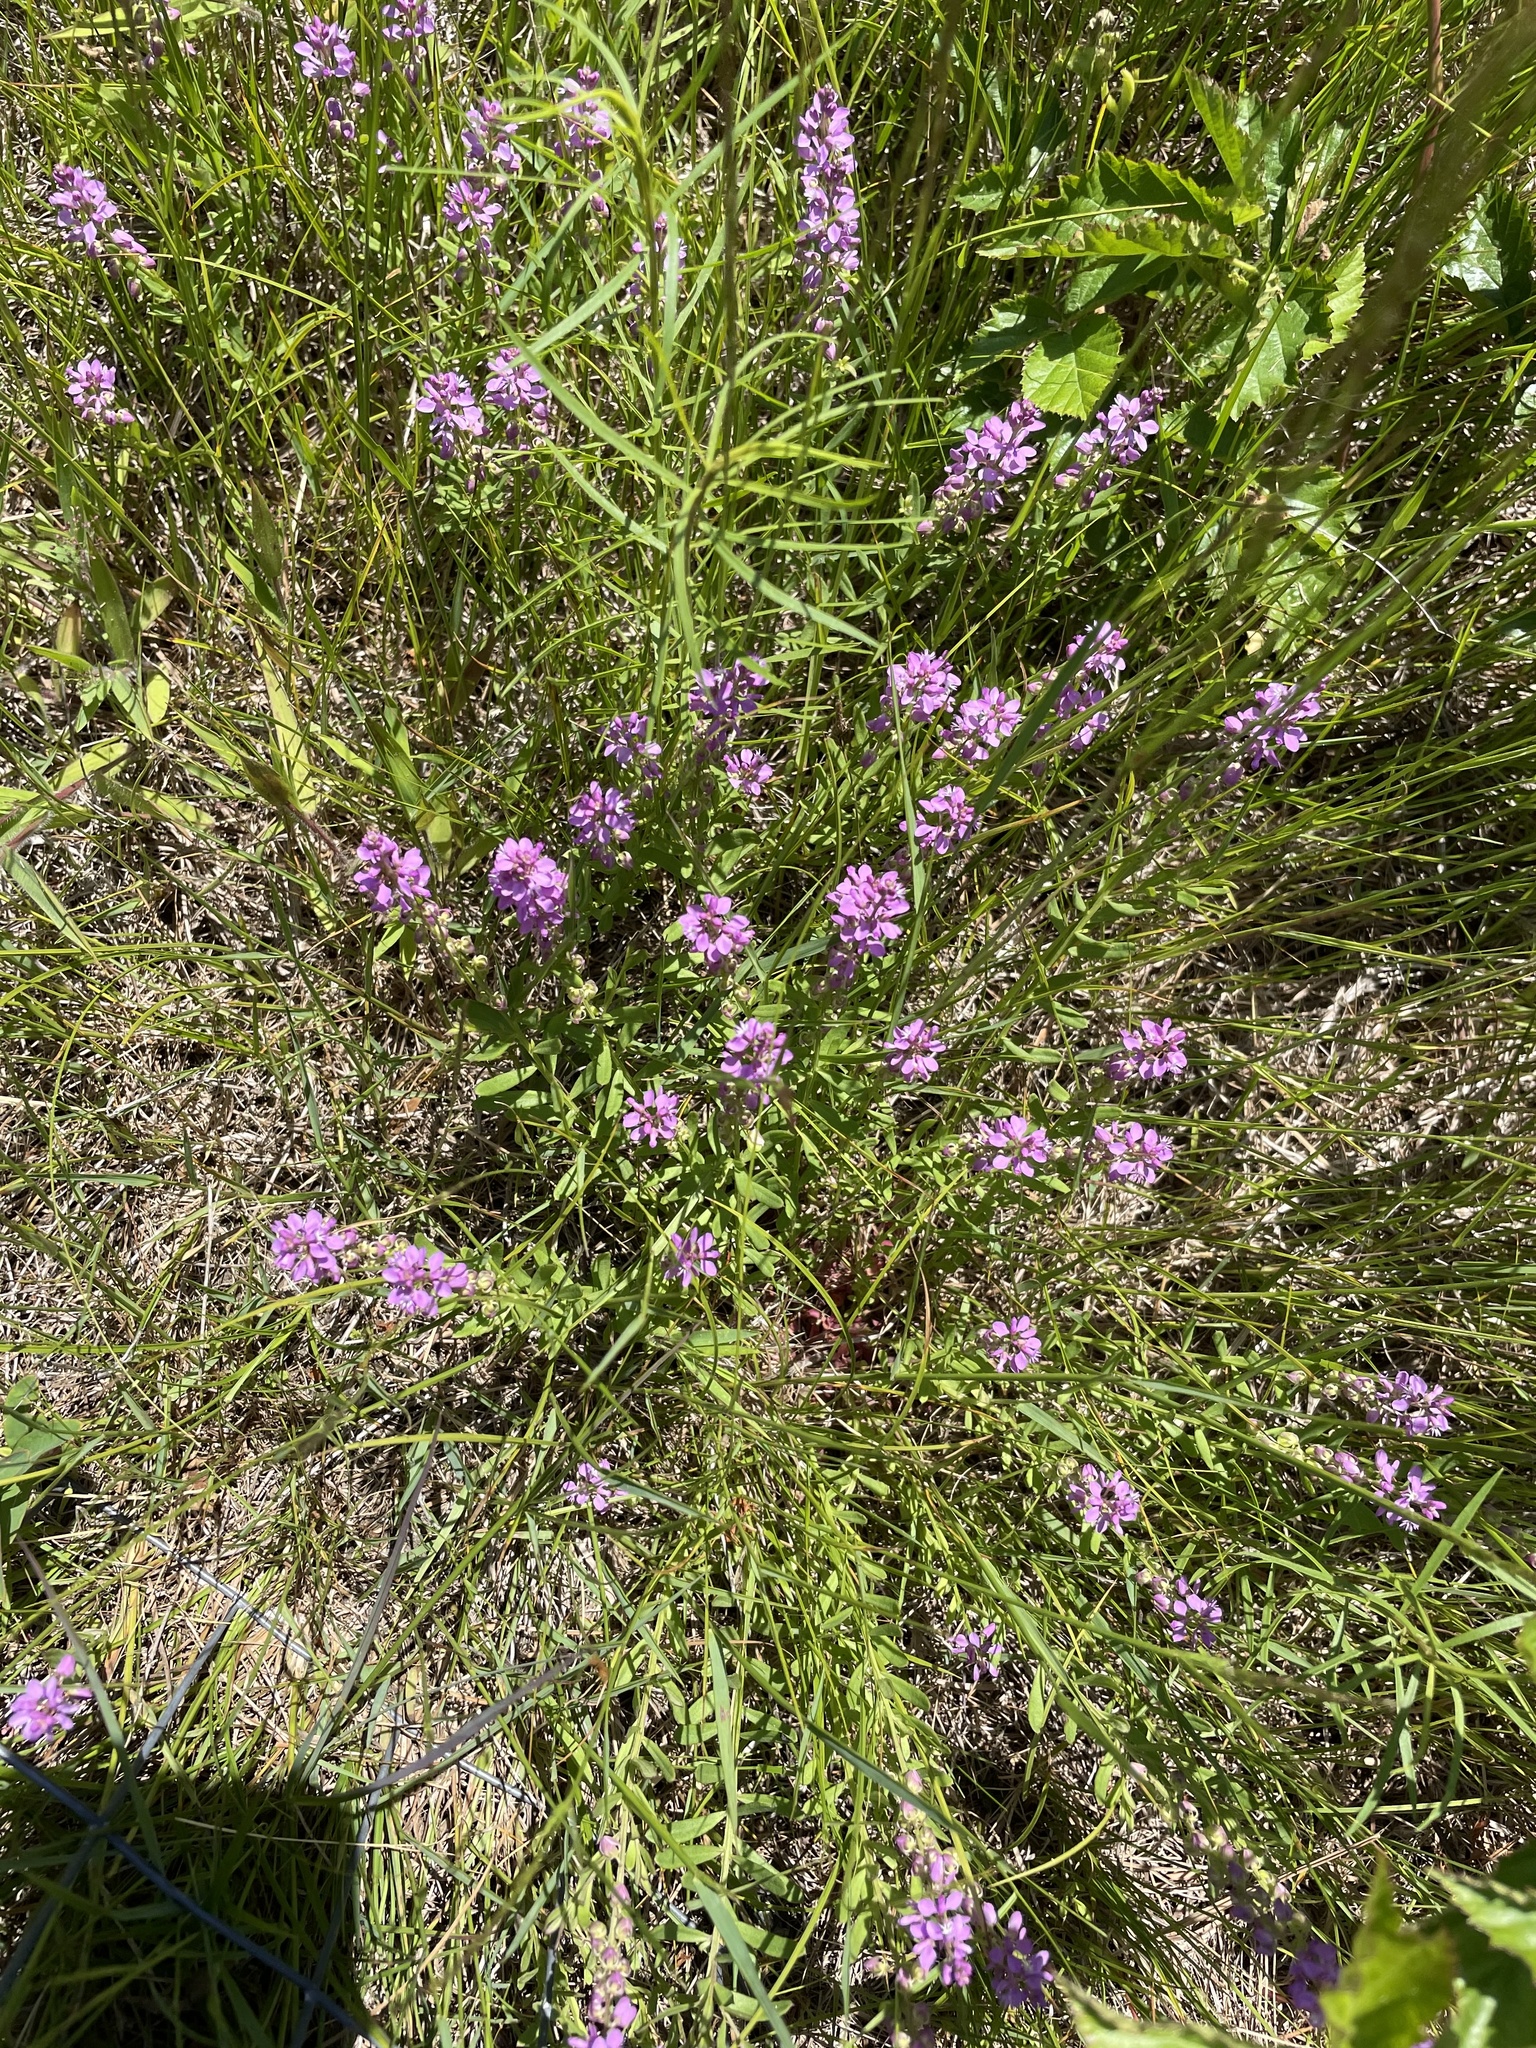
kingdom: Plantae
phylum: Tracheophyta
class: Magnoliopsida
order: Fabales
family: Polygalaceae
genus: Polygala
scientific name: Polygala polygama
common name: Bitter milkwort
